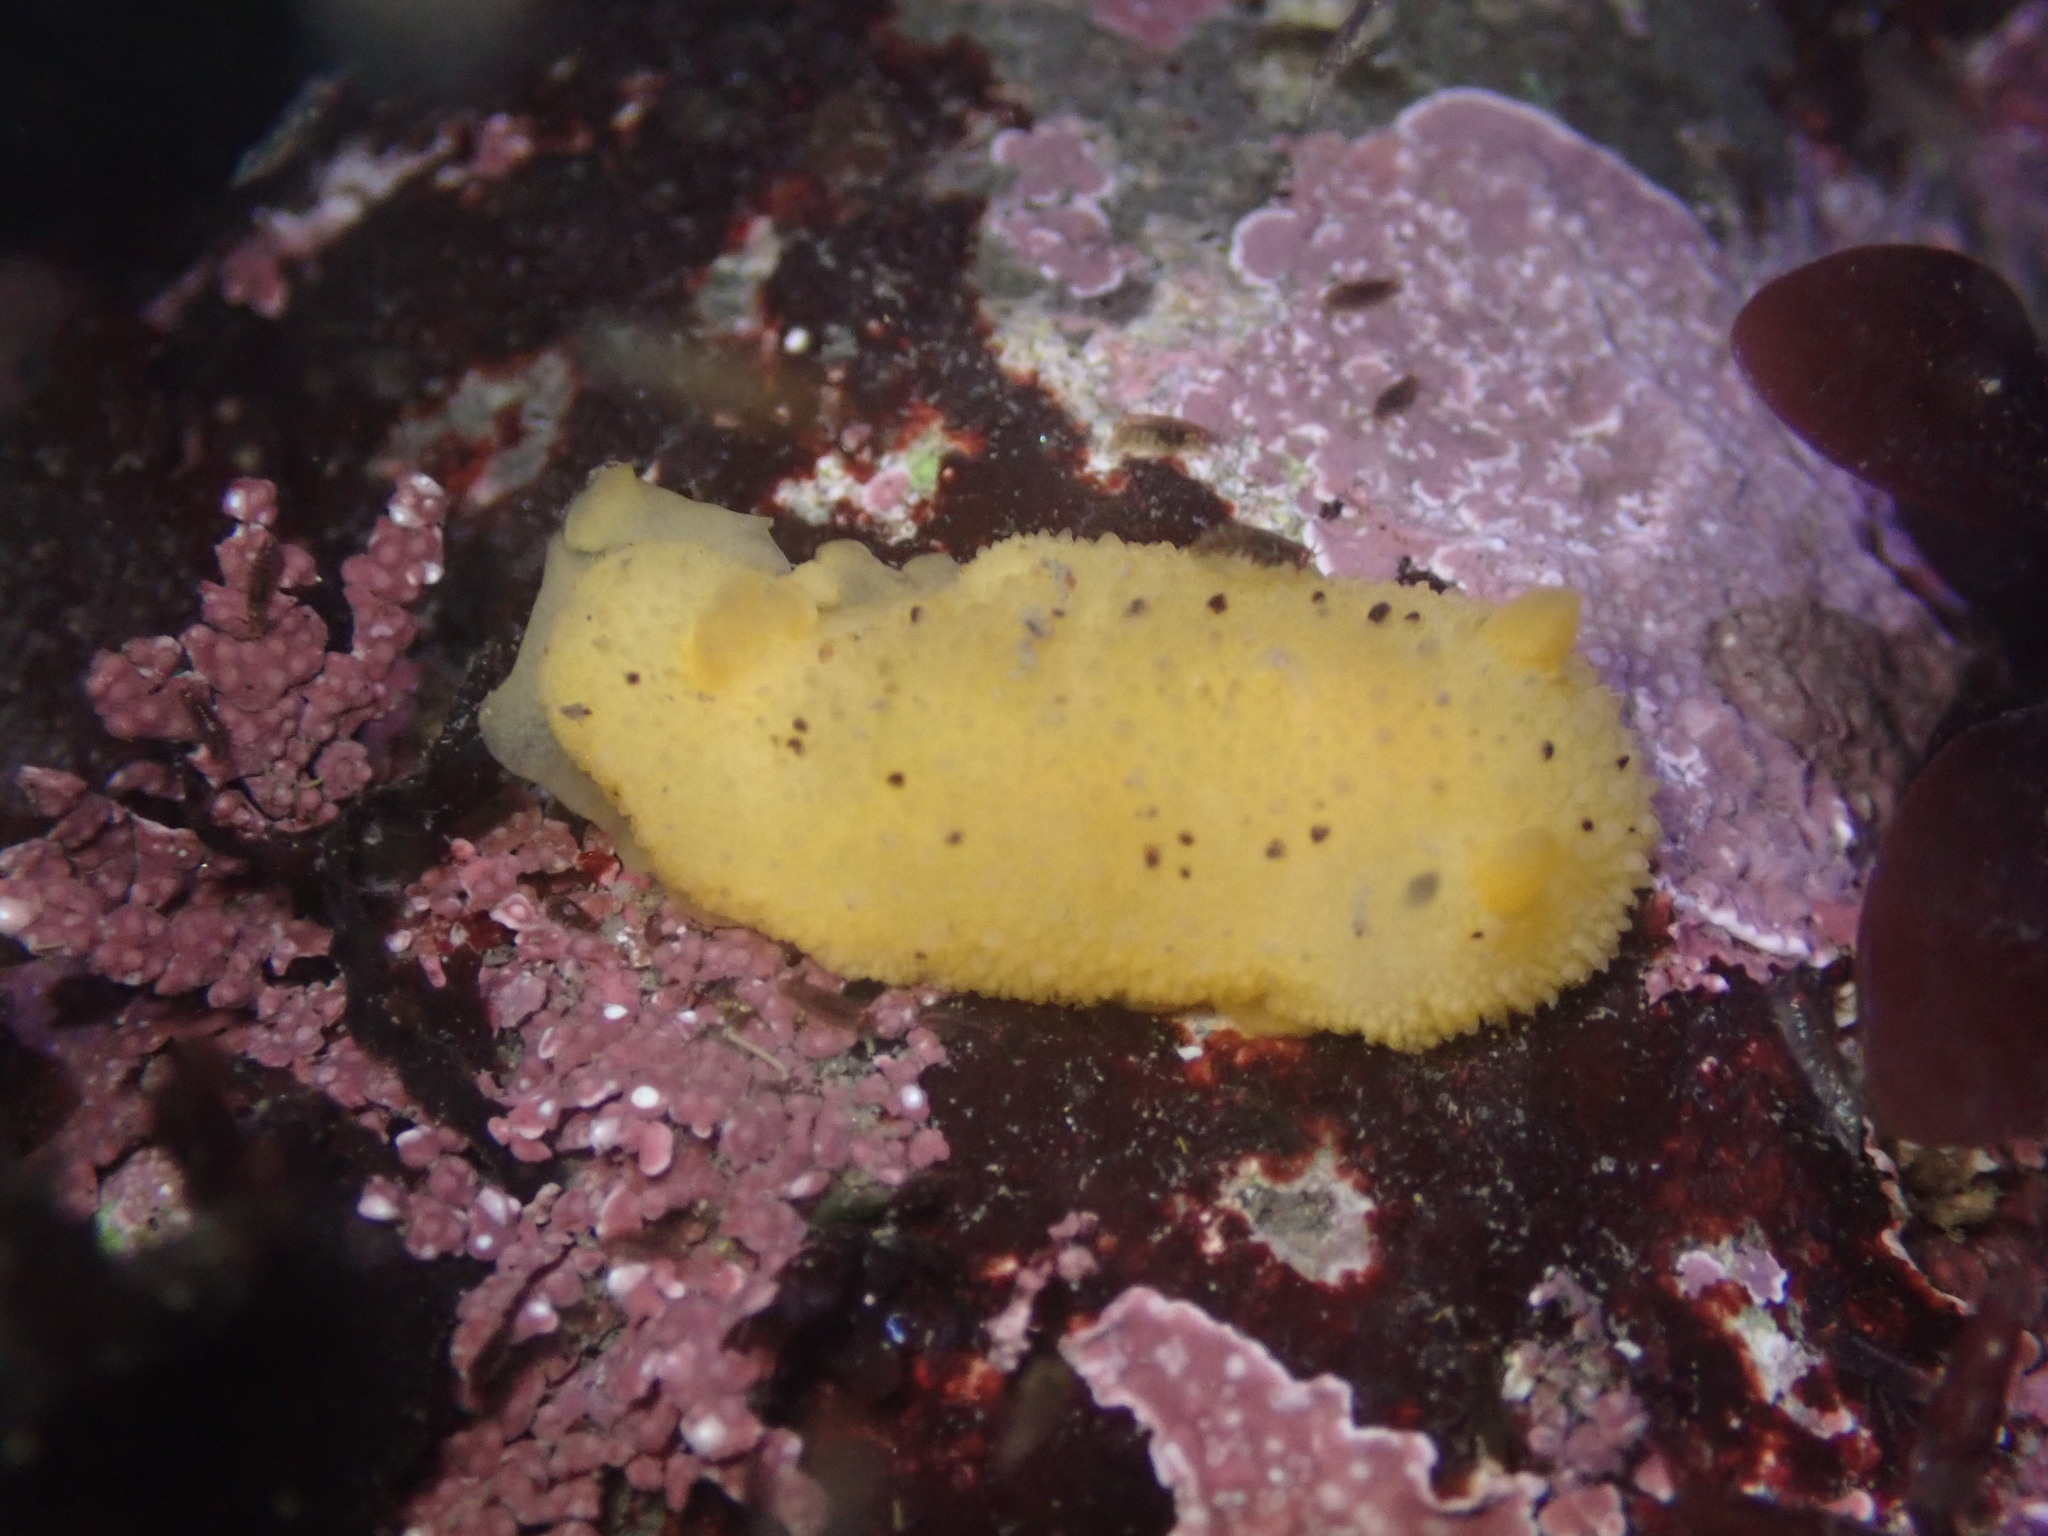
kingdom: Animalia
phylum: Mollusca
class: Gastropoda
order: Nudibranchia
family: Dorididae
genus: Doris
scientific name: Doris montereyensis
